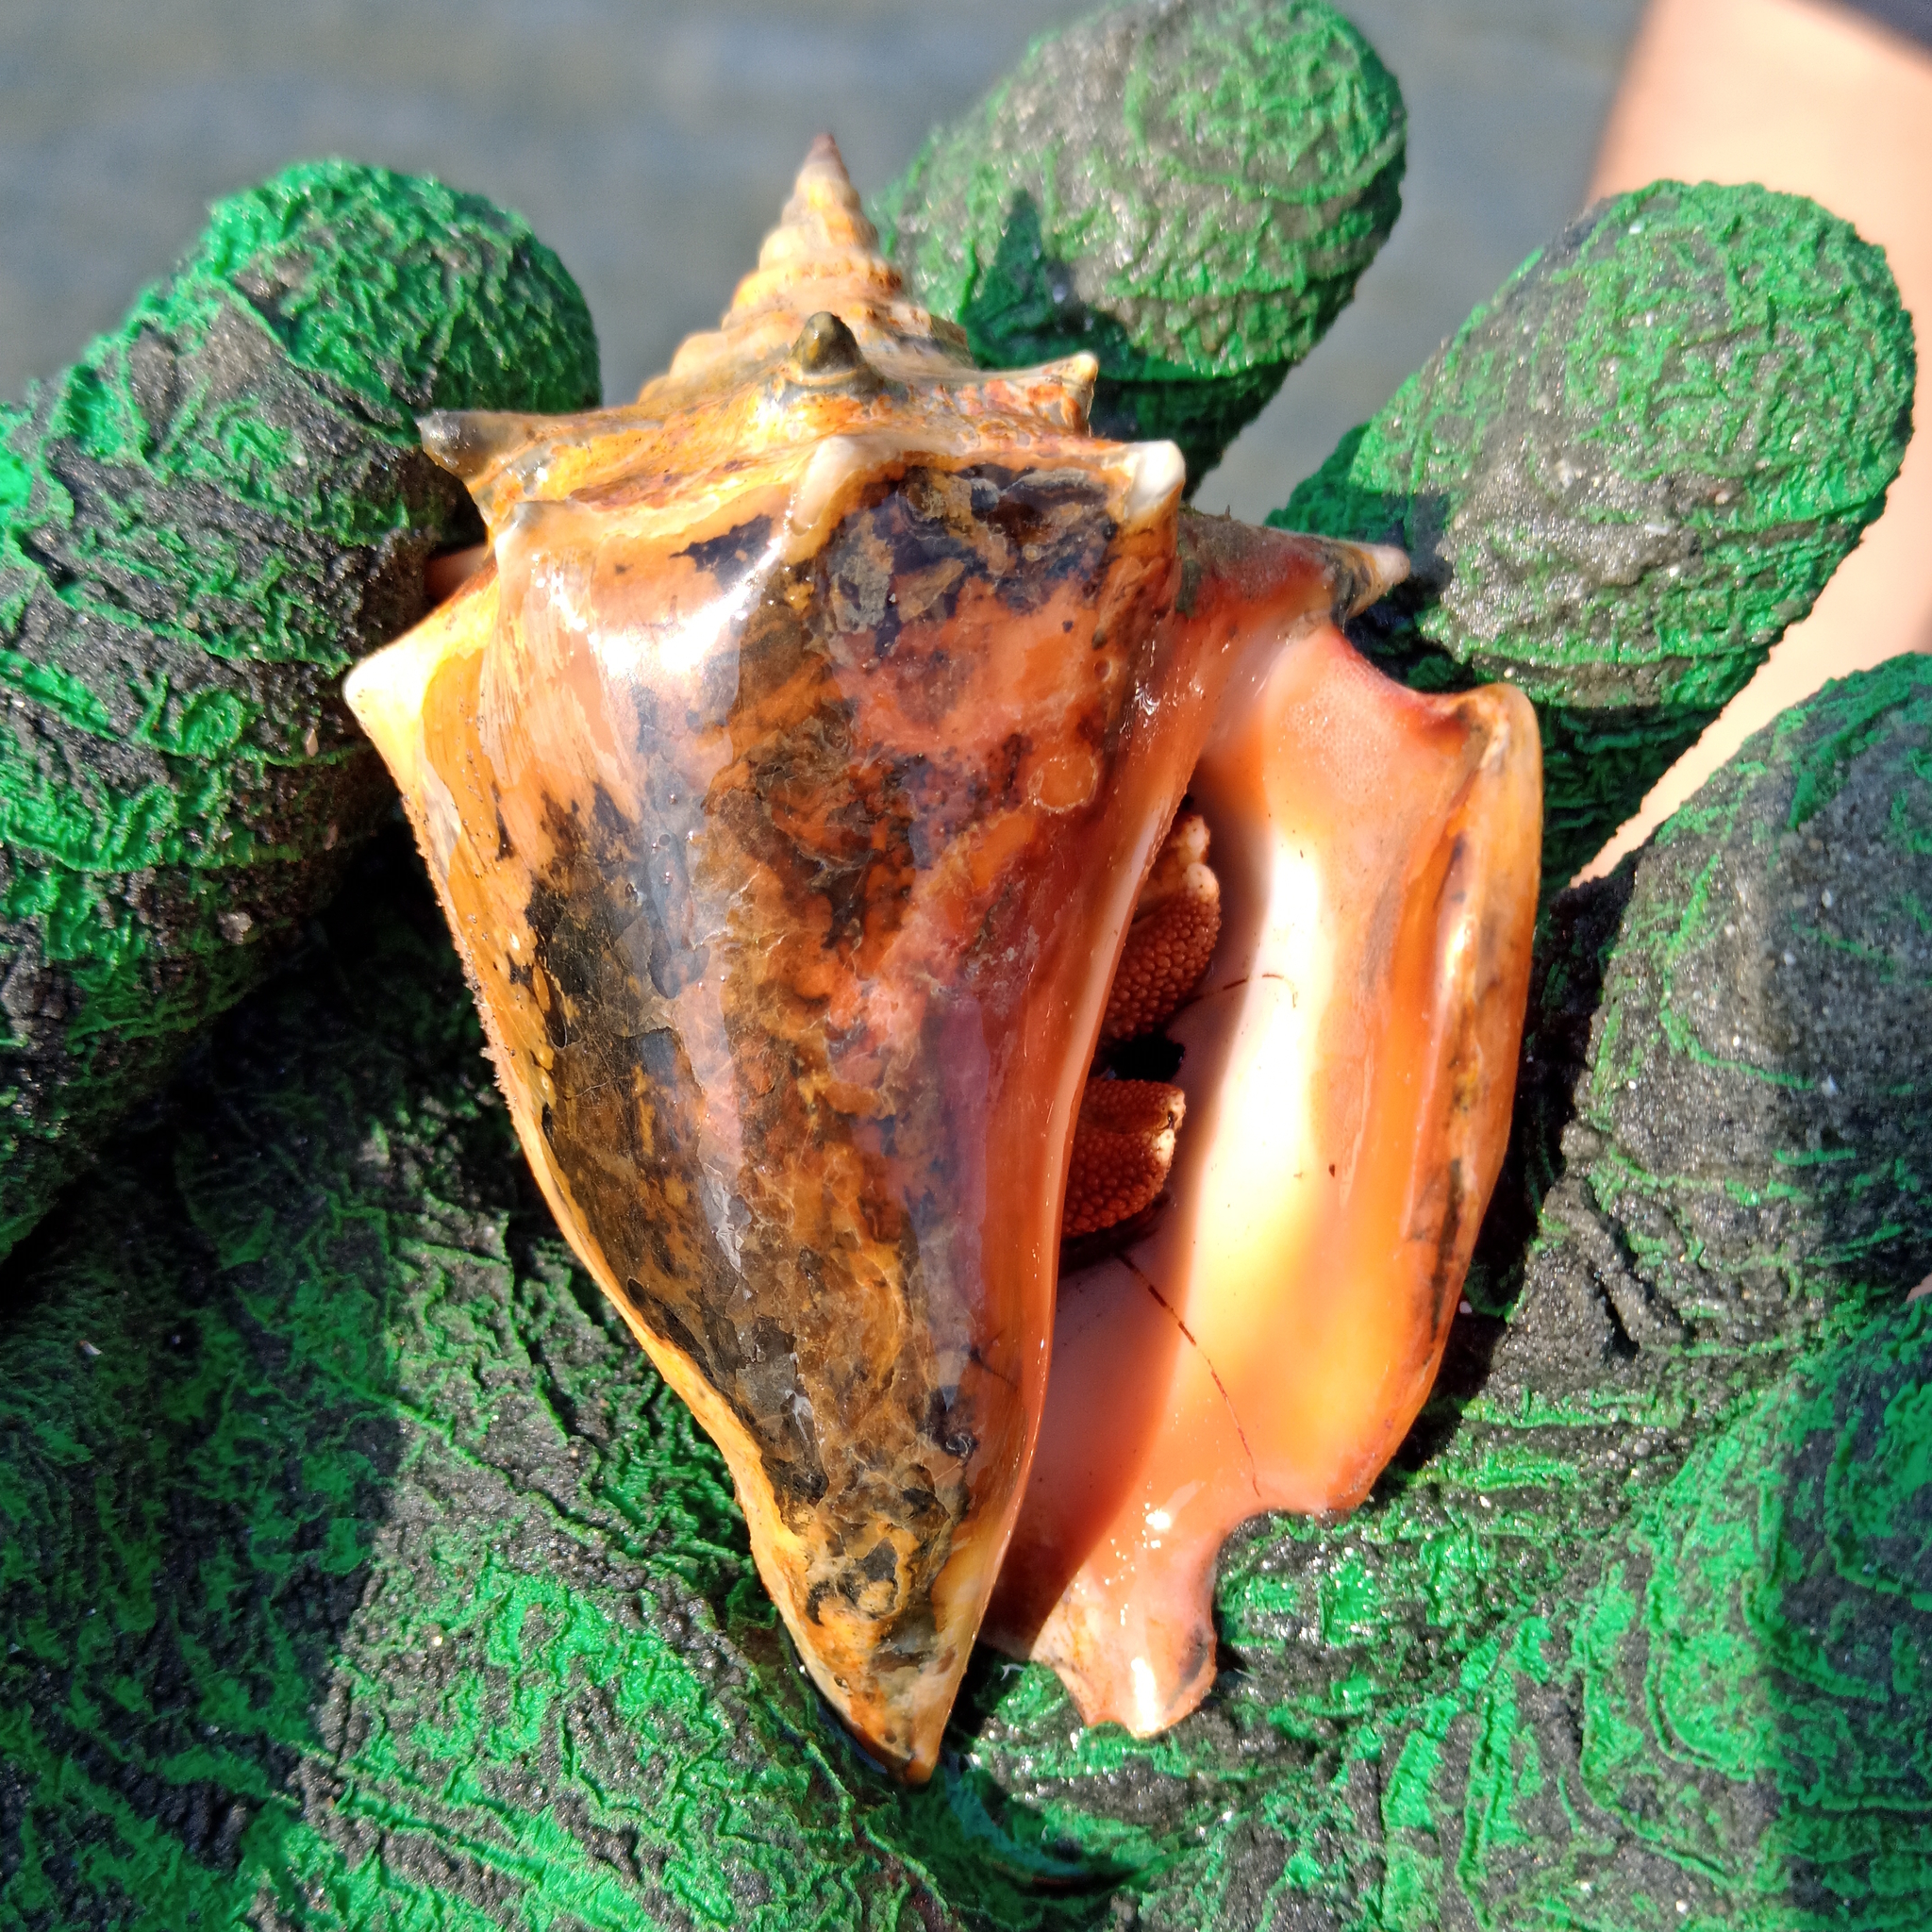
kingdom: Animalia
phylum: Mollusca
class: Gastropoda
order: Littorinimorpha
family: Strombidae
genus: Strombus
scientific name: Strombus pugilis
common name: West indian fighting conch
